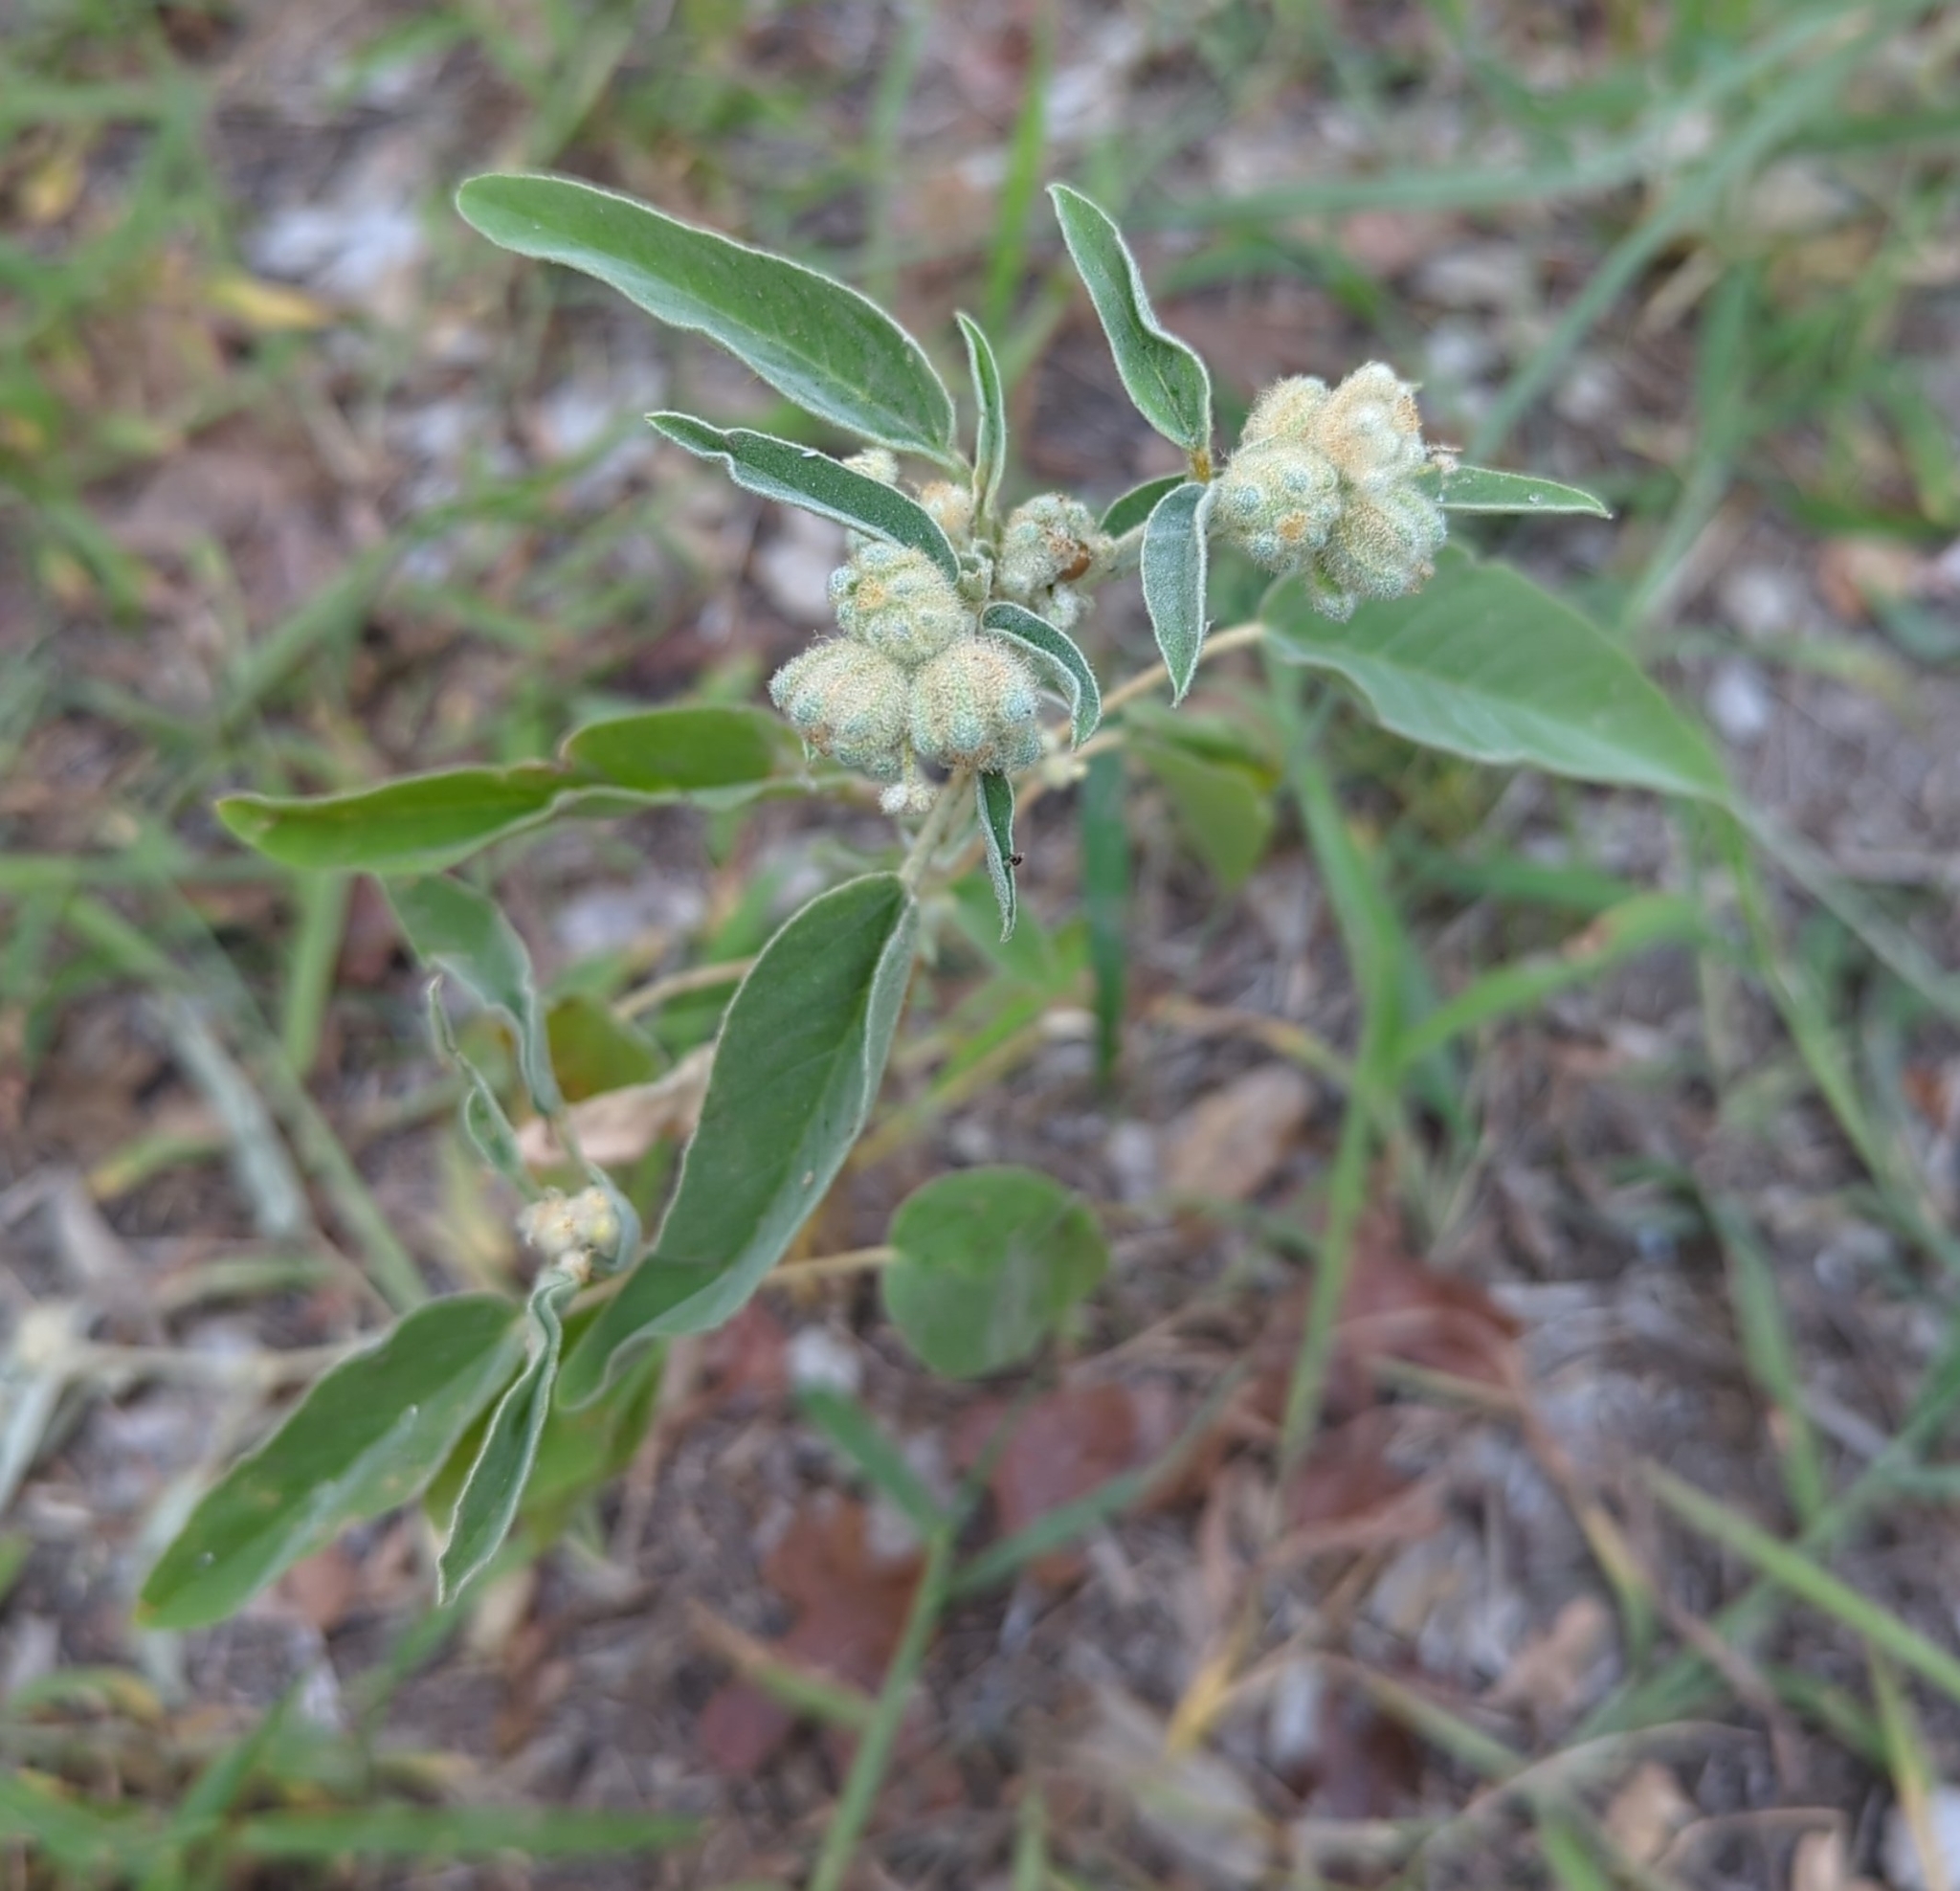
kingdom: Plantae
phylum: Tracheophyta
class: Magnoliopsida
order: Malpighiales
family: Euphorbiaceae
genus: Croton
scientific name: Croton capitatus
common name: Woolly croton
